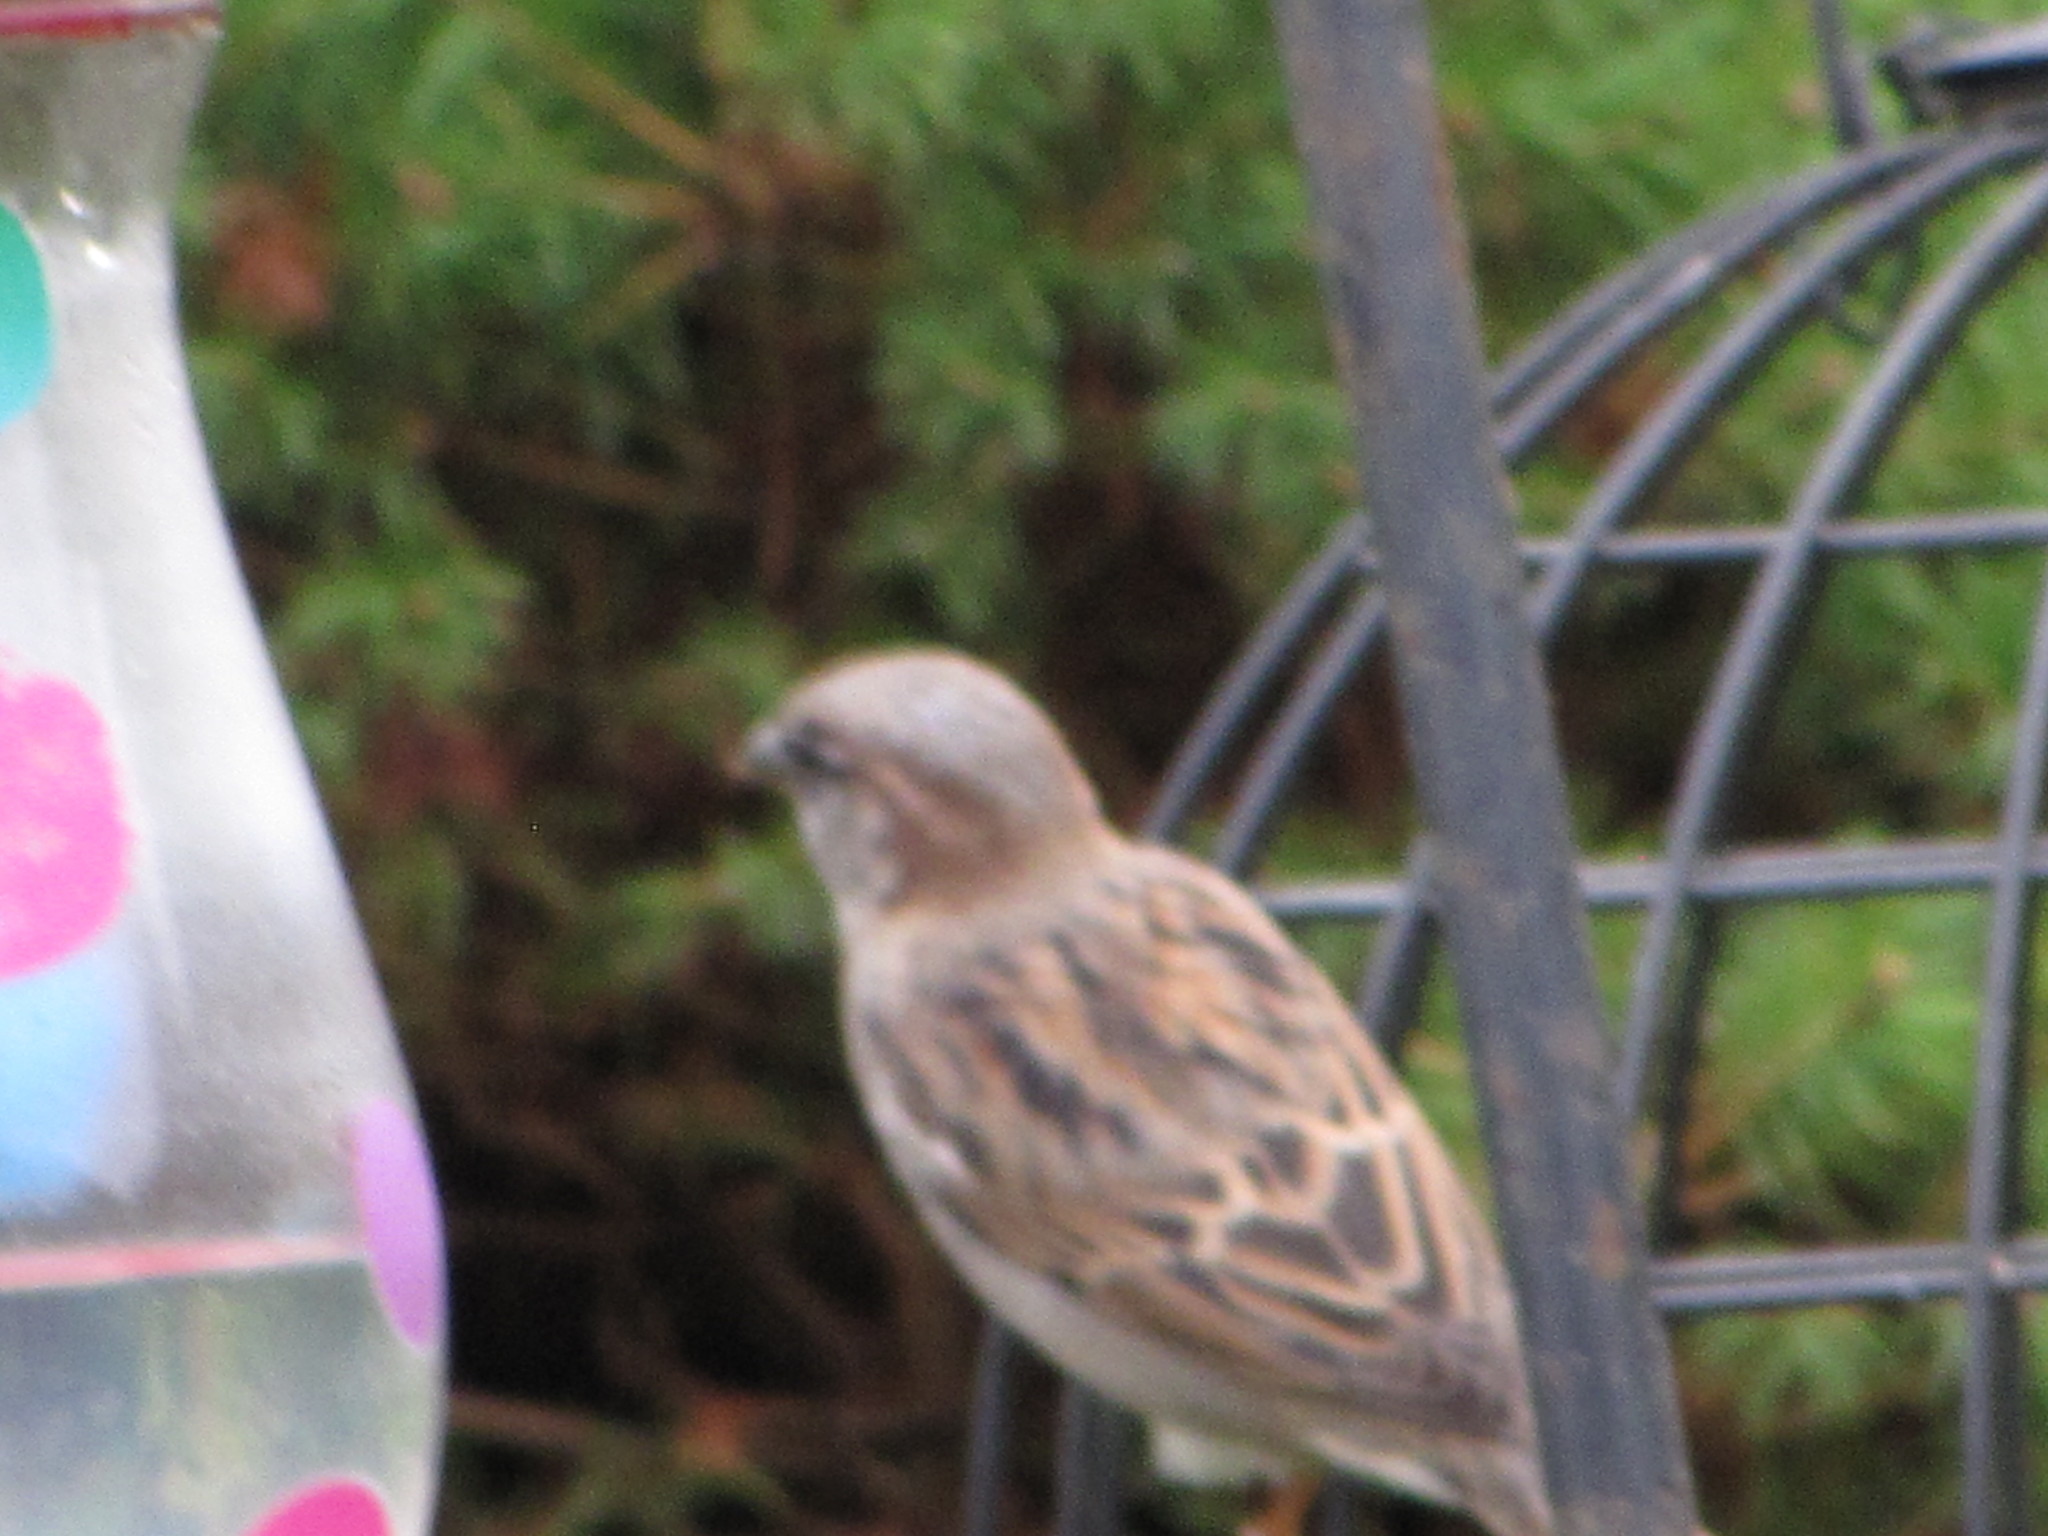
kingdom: Animalia
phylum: Chordata
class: Aves
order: Passeriformes
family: Passeridae
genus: Passer
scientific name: Passer domesticus
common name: House sparrow
